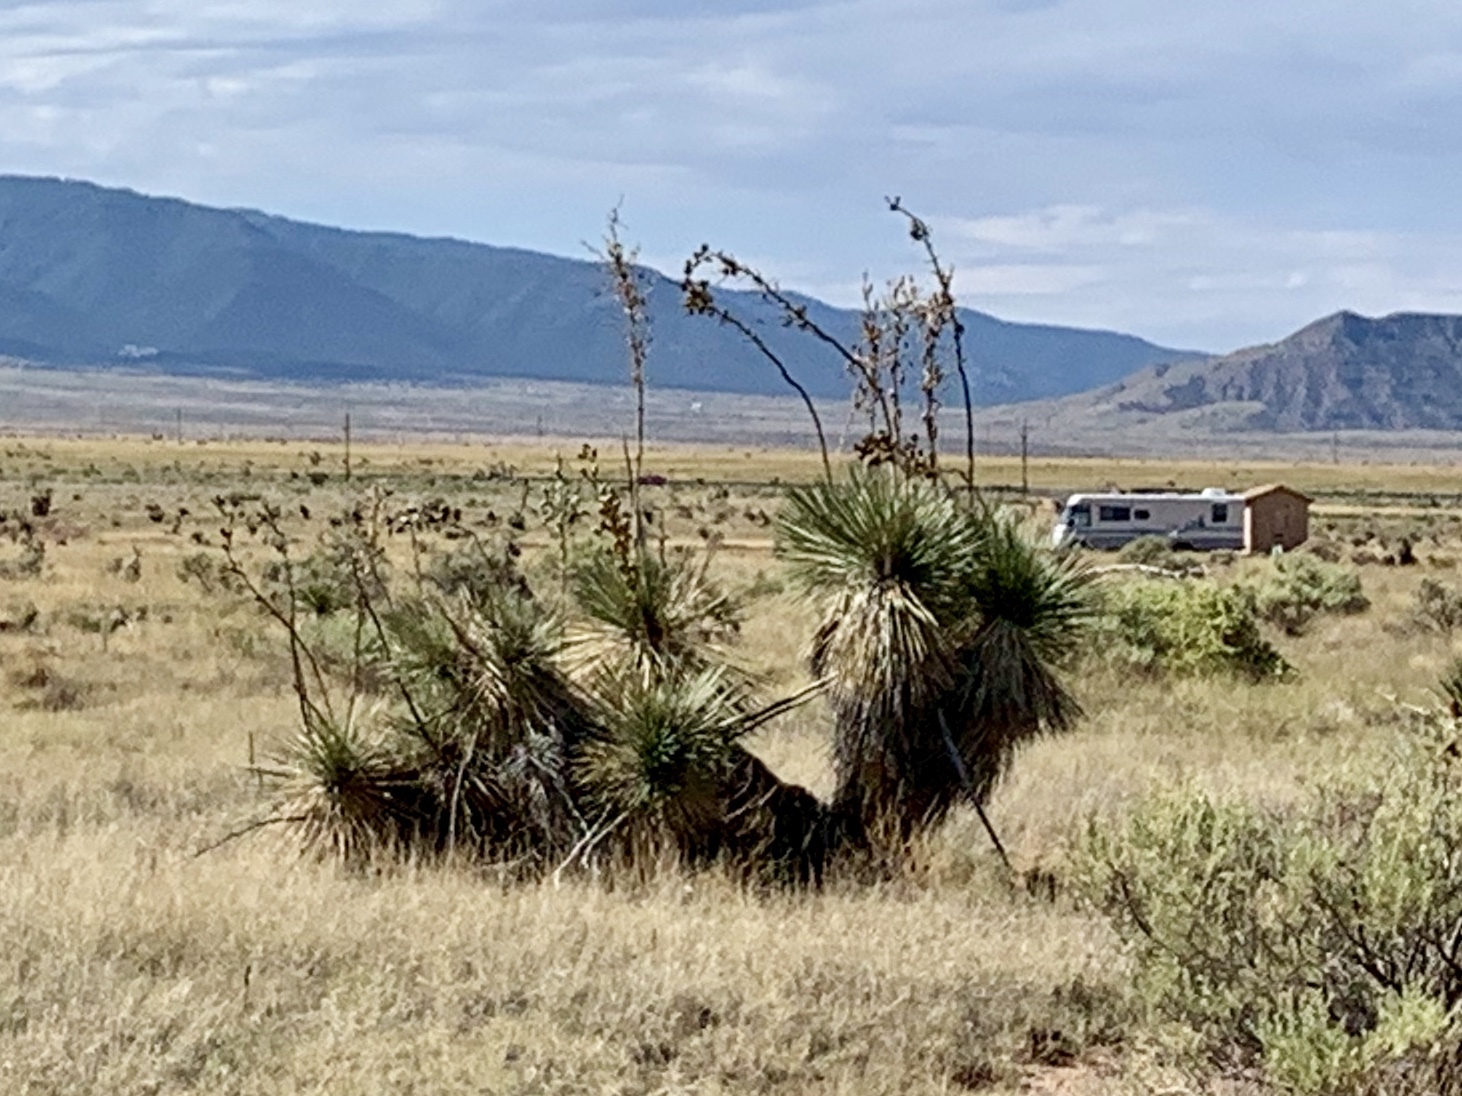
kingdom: Plantae
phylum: Tracheophyta
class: Liliopsida
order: Asparagales
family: Asparagaceae
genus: Yucca
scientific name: Yucca elata
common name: Palmella
